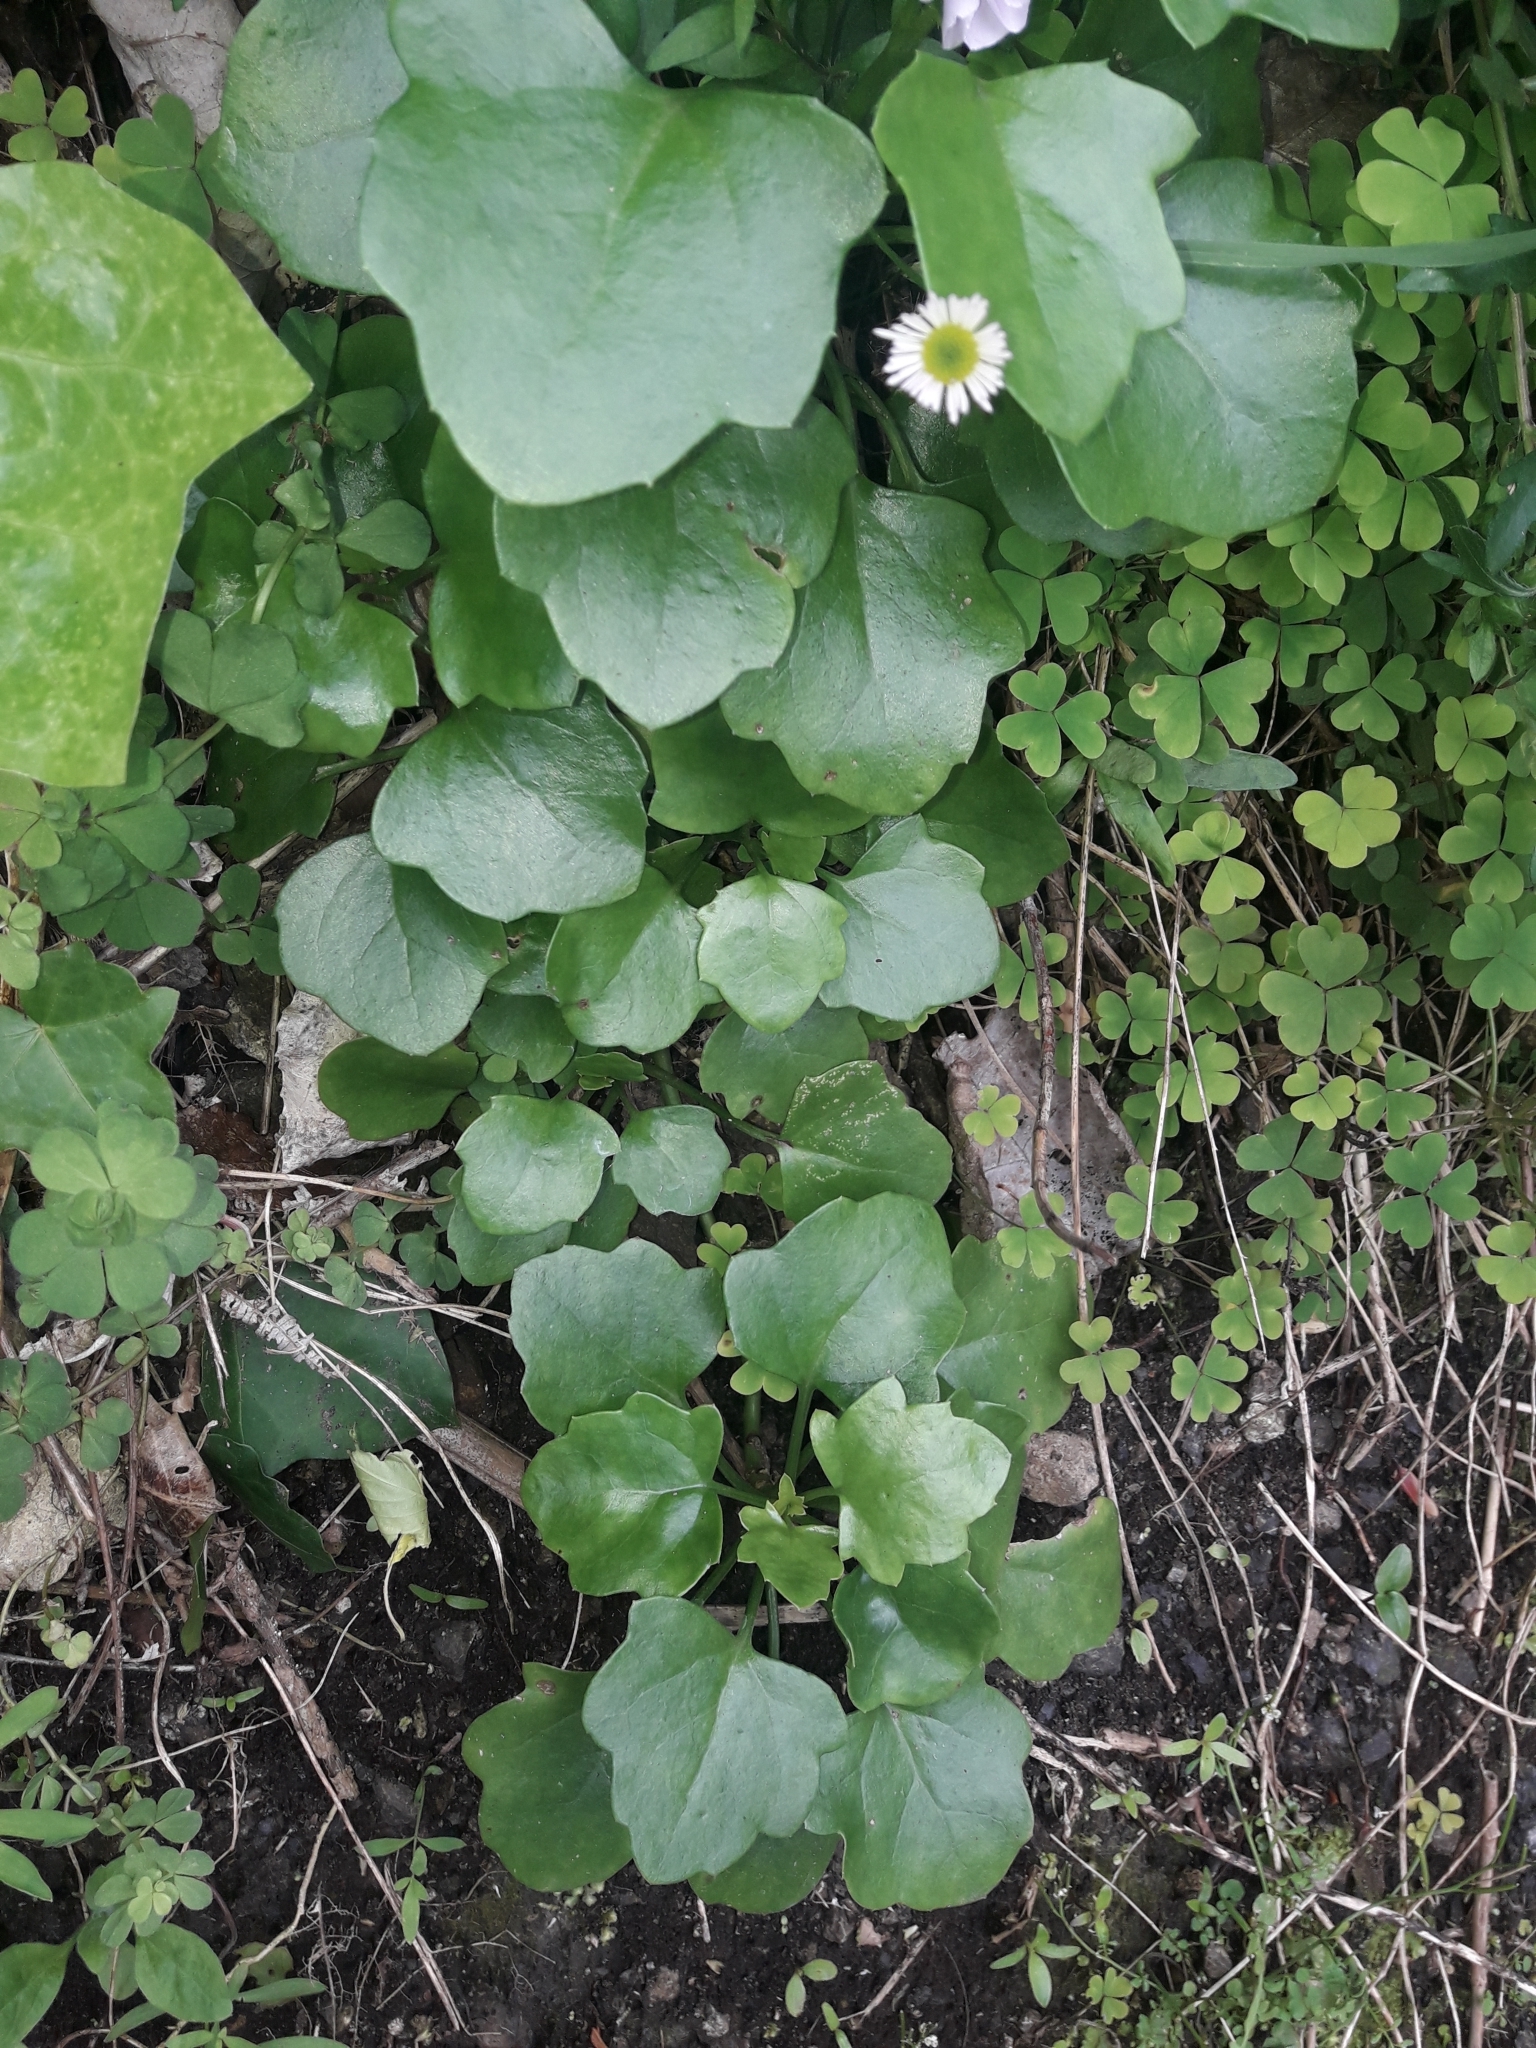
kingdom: Plantae
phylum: Tracheophyta
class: Magnoliopsida
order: Asterales
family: Asteraceae
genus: Senecio
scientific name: Senecio angulatus
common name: Climbing groundsel
